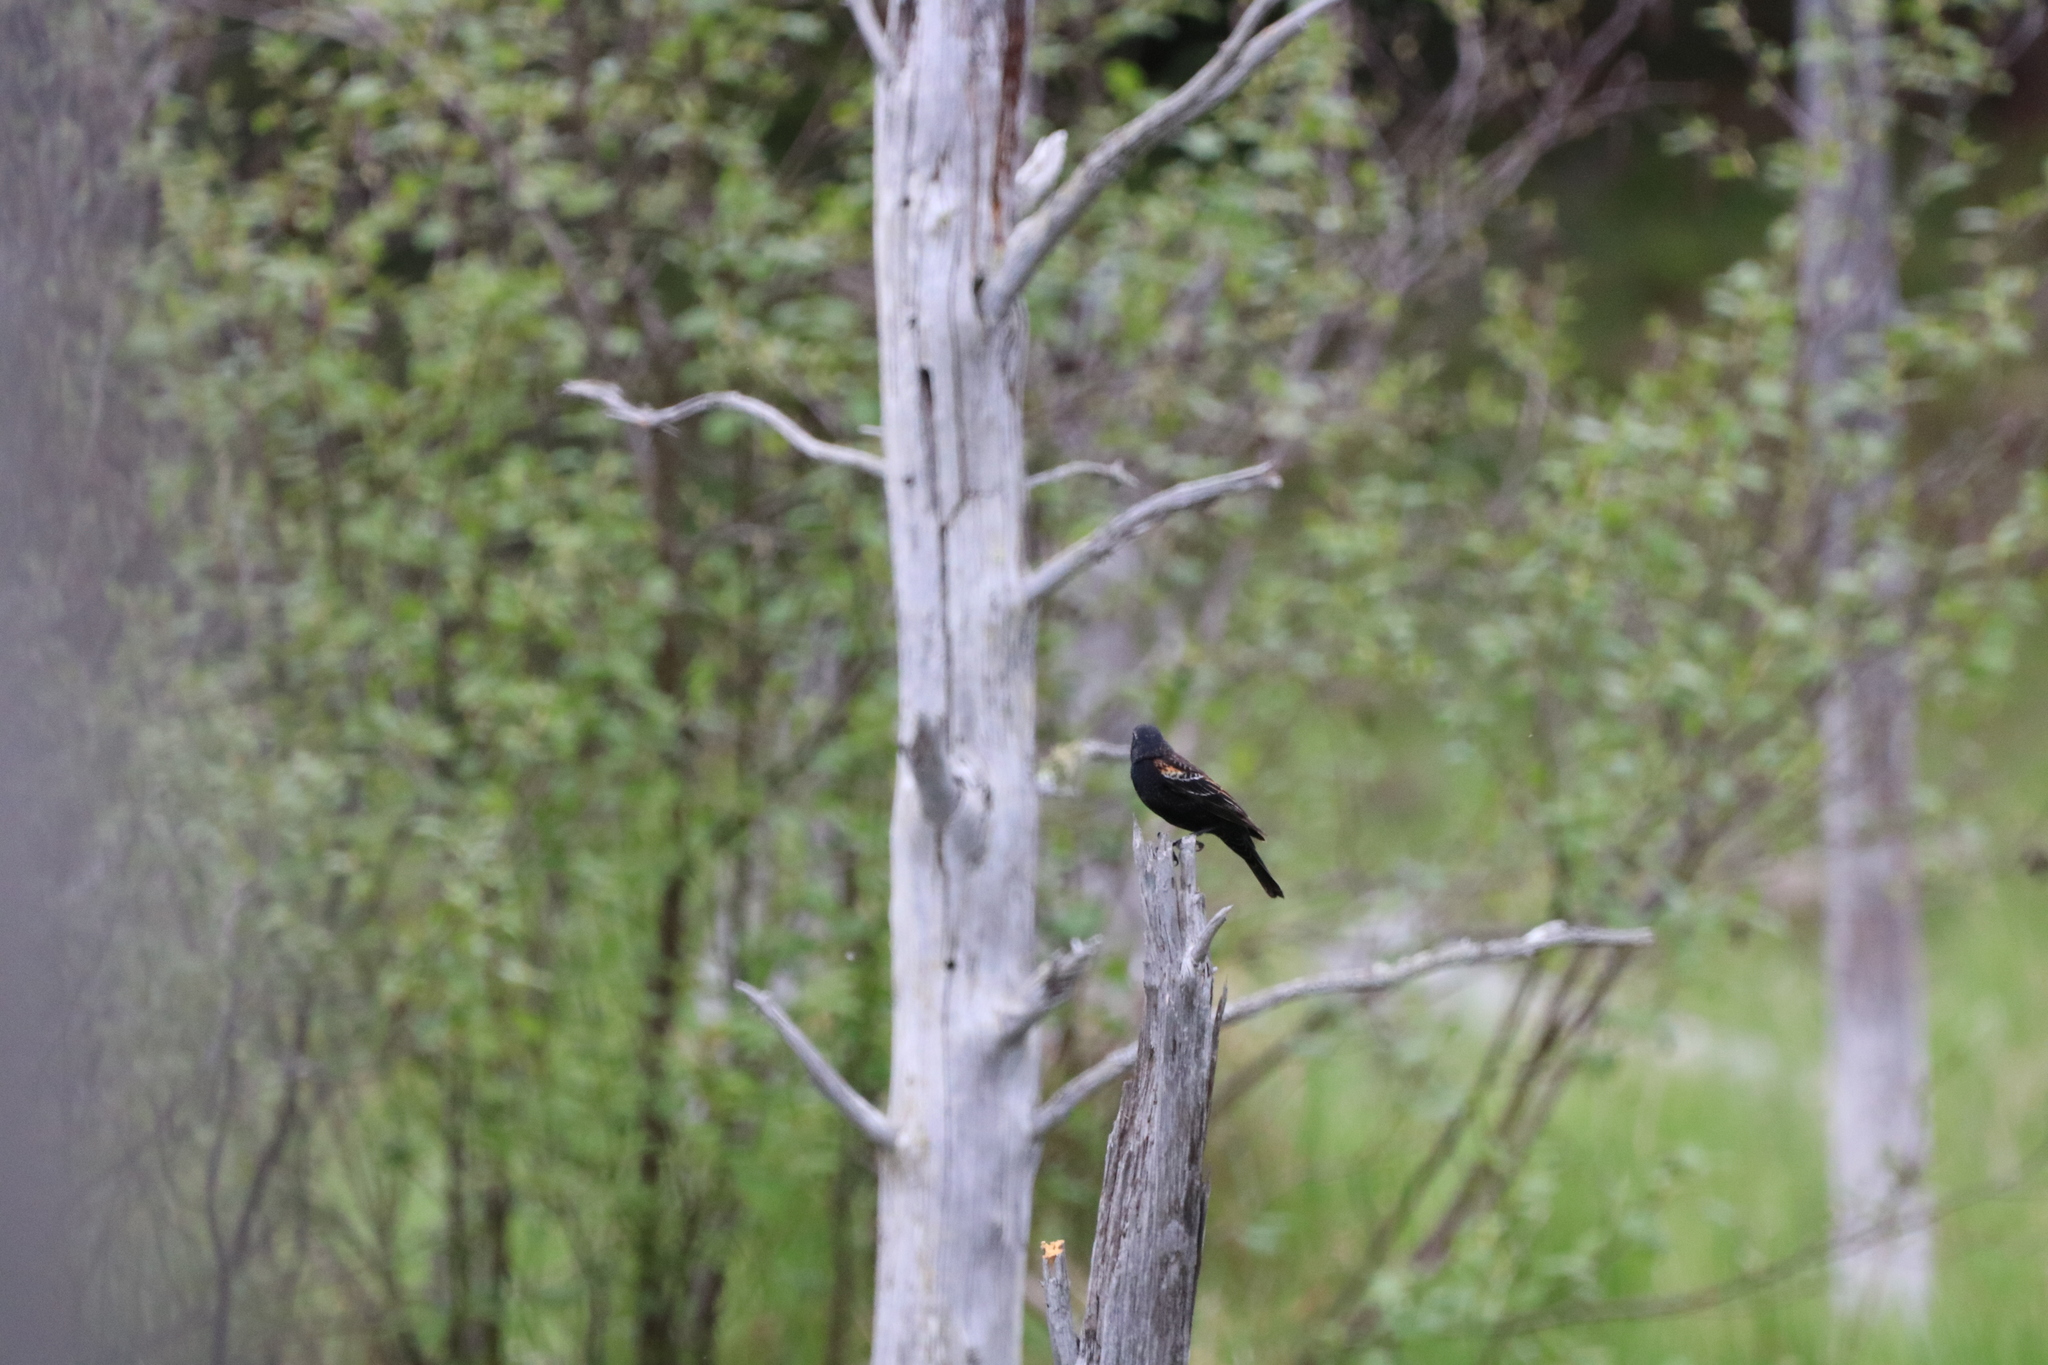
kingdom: Animalia
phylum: Chordata
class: Aves
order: Passeriformes
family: Icteridae
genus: Agelaius
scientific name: Agelaius phoeniceus
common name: Red-winged blackbird
